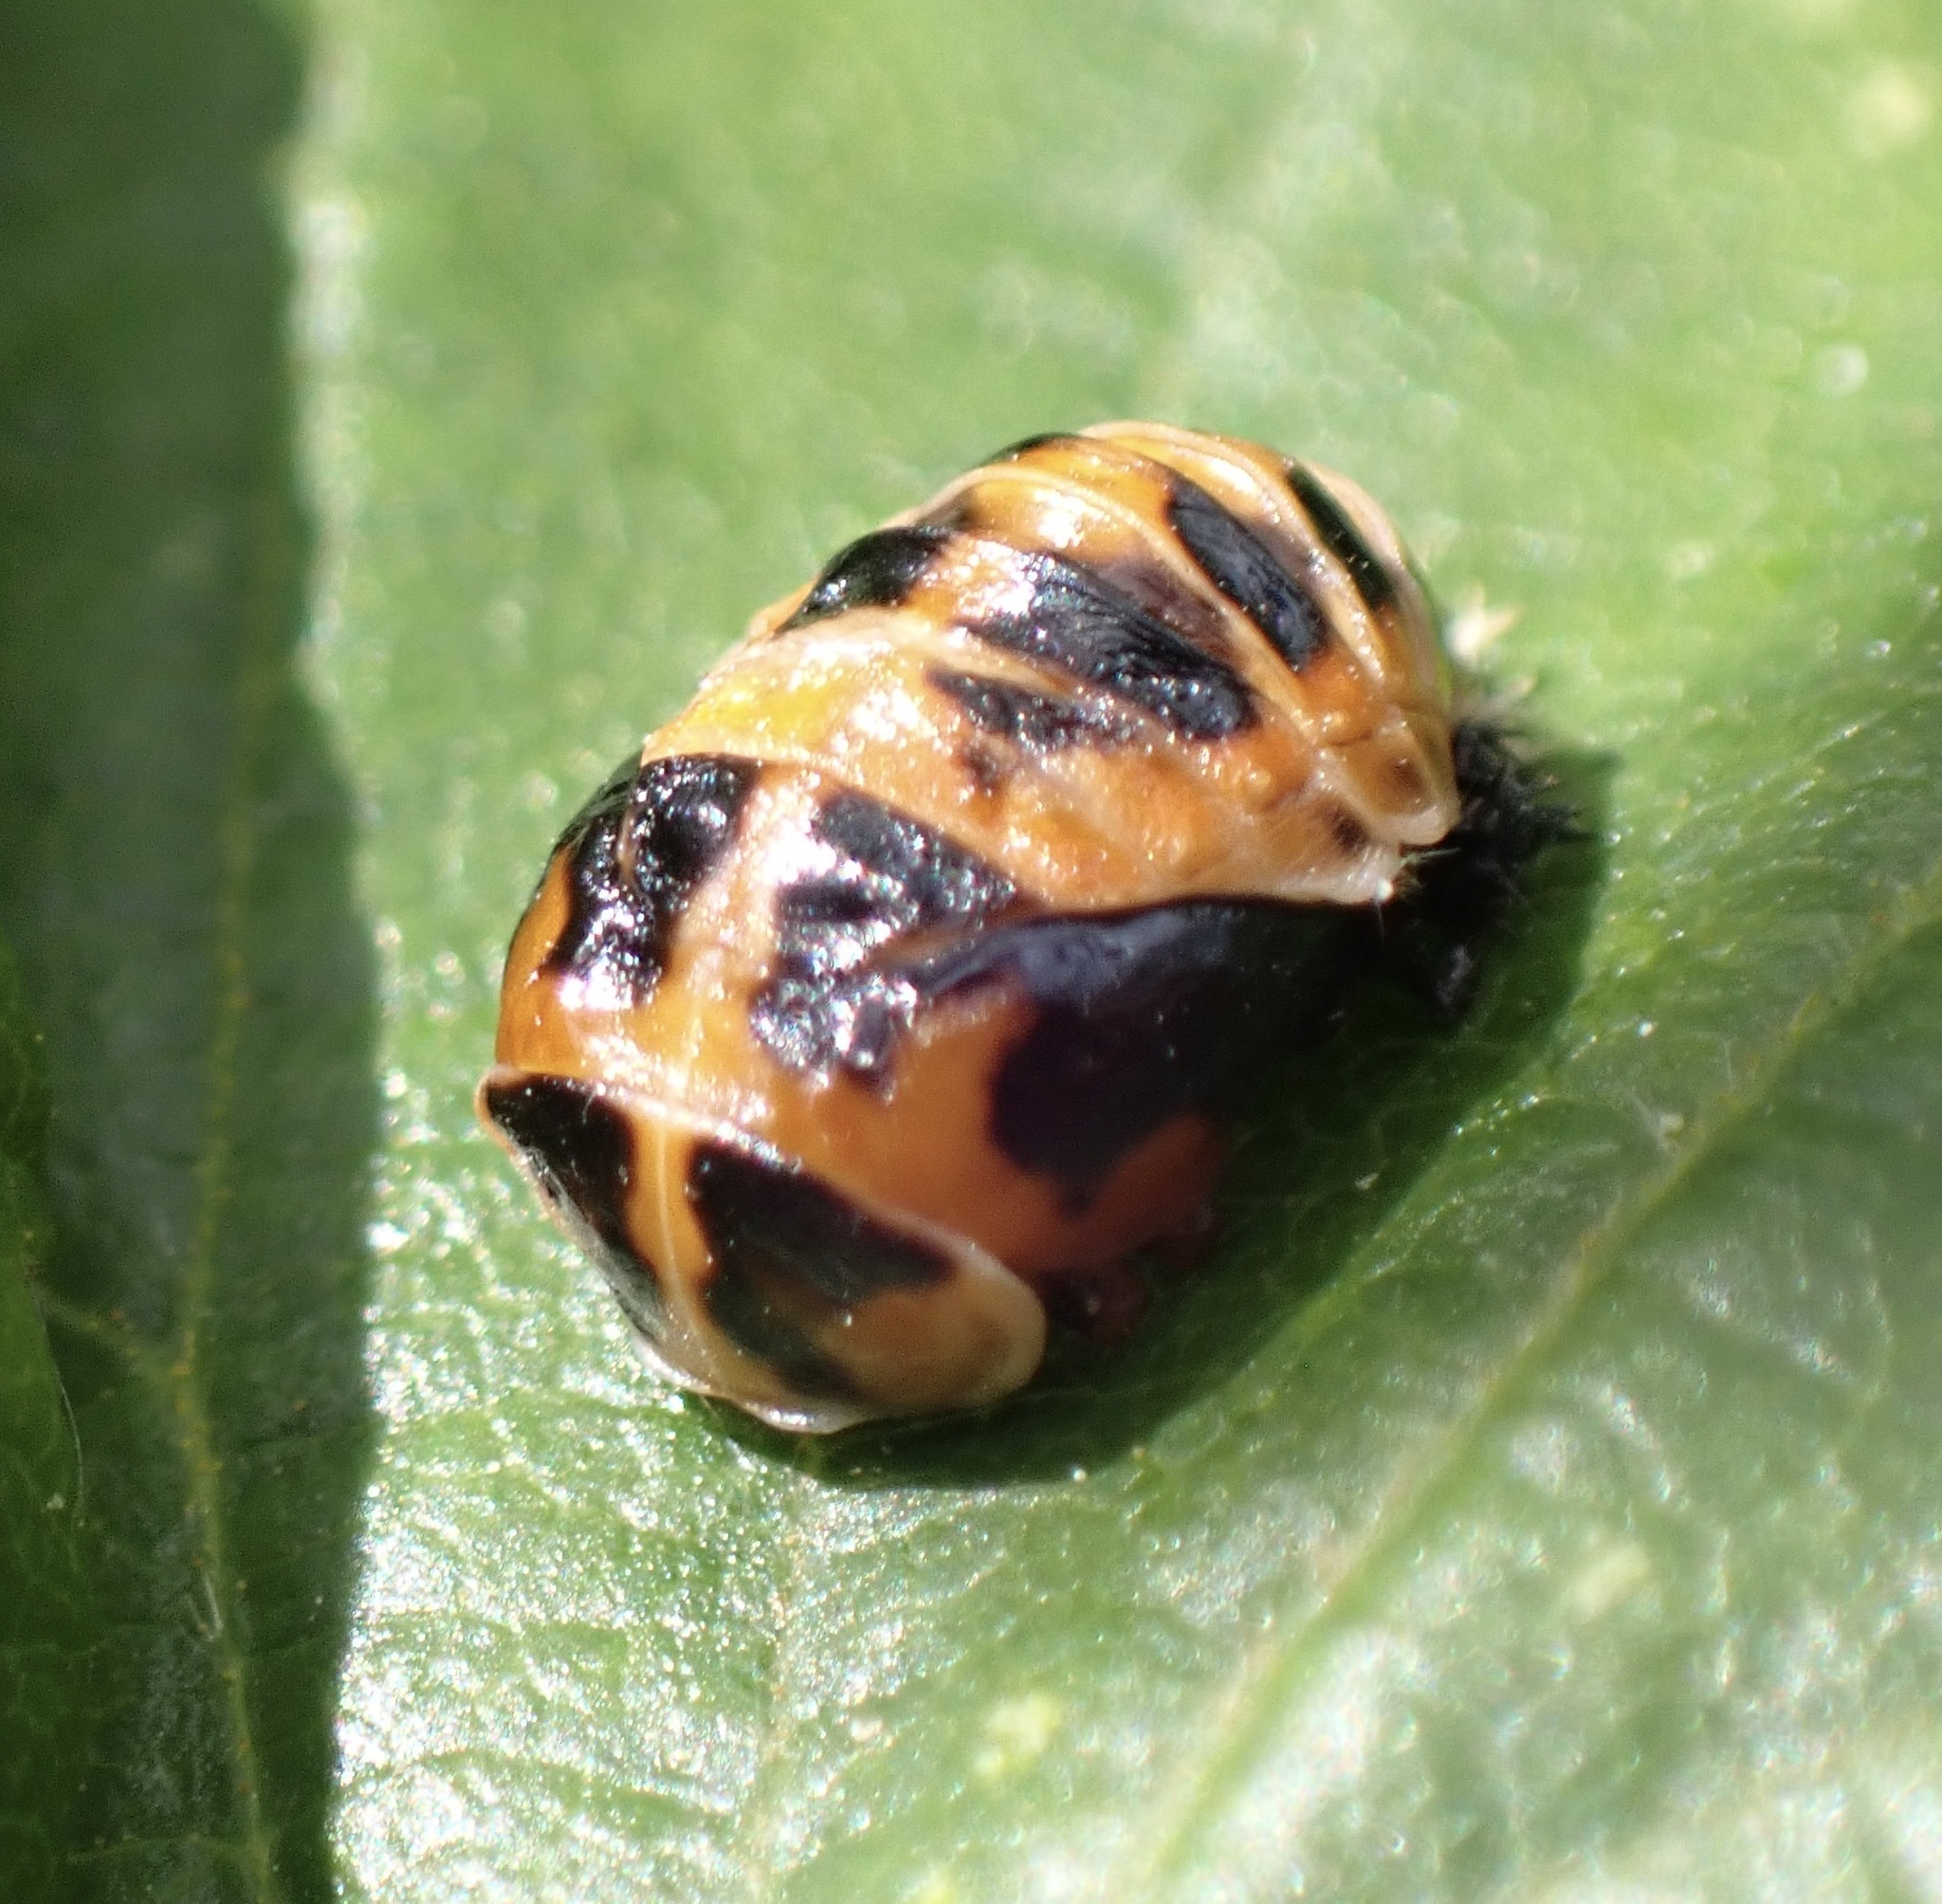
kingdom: Animalia
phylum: Arthropoda
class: Insecta
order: Coleoptera
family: Coccinellidae
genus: Harmonia
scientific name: Harmonia axyridis
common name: Harlequin ladybird
